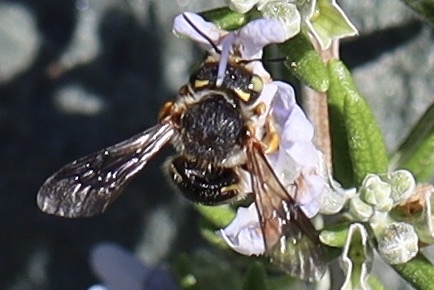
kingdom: Animalia
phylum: Arthropoda
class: Insecta
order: Hymenoptera
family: Megachilidae
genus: Anthidium
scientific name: Anthidium oblongatum
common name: Oblong wool carder bee
